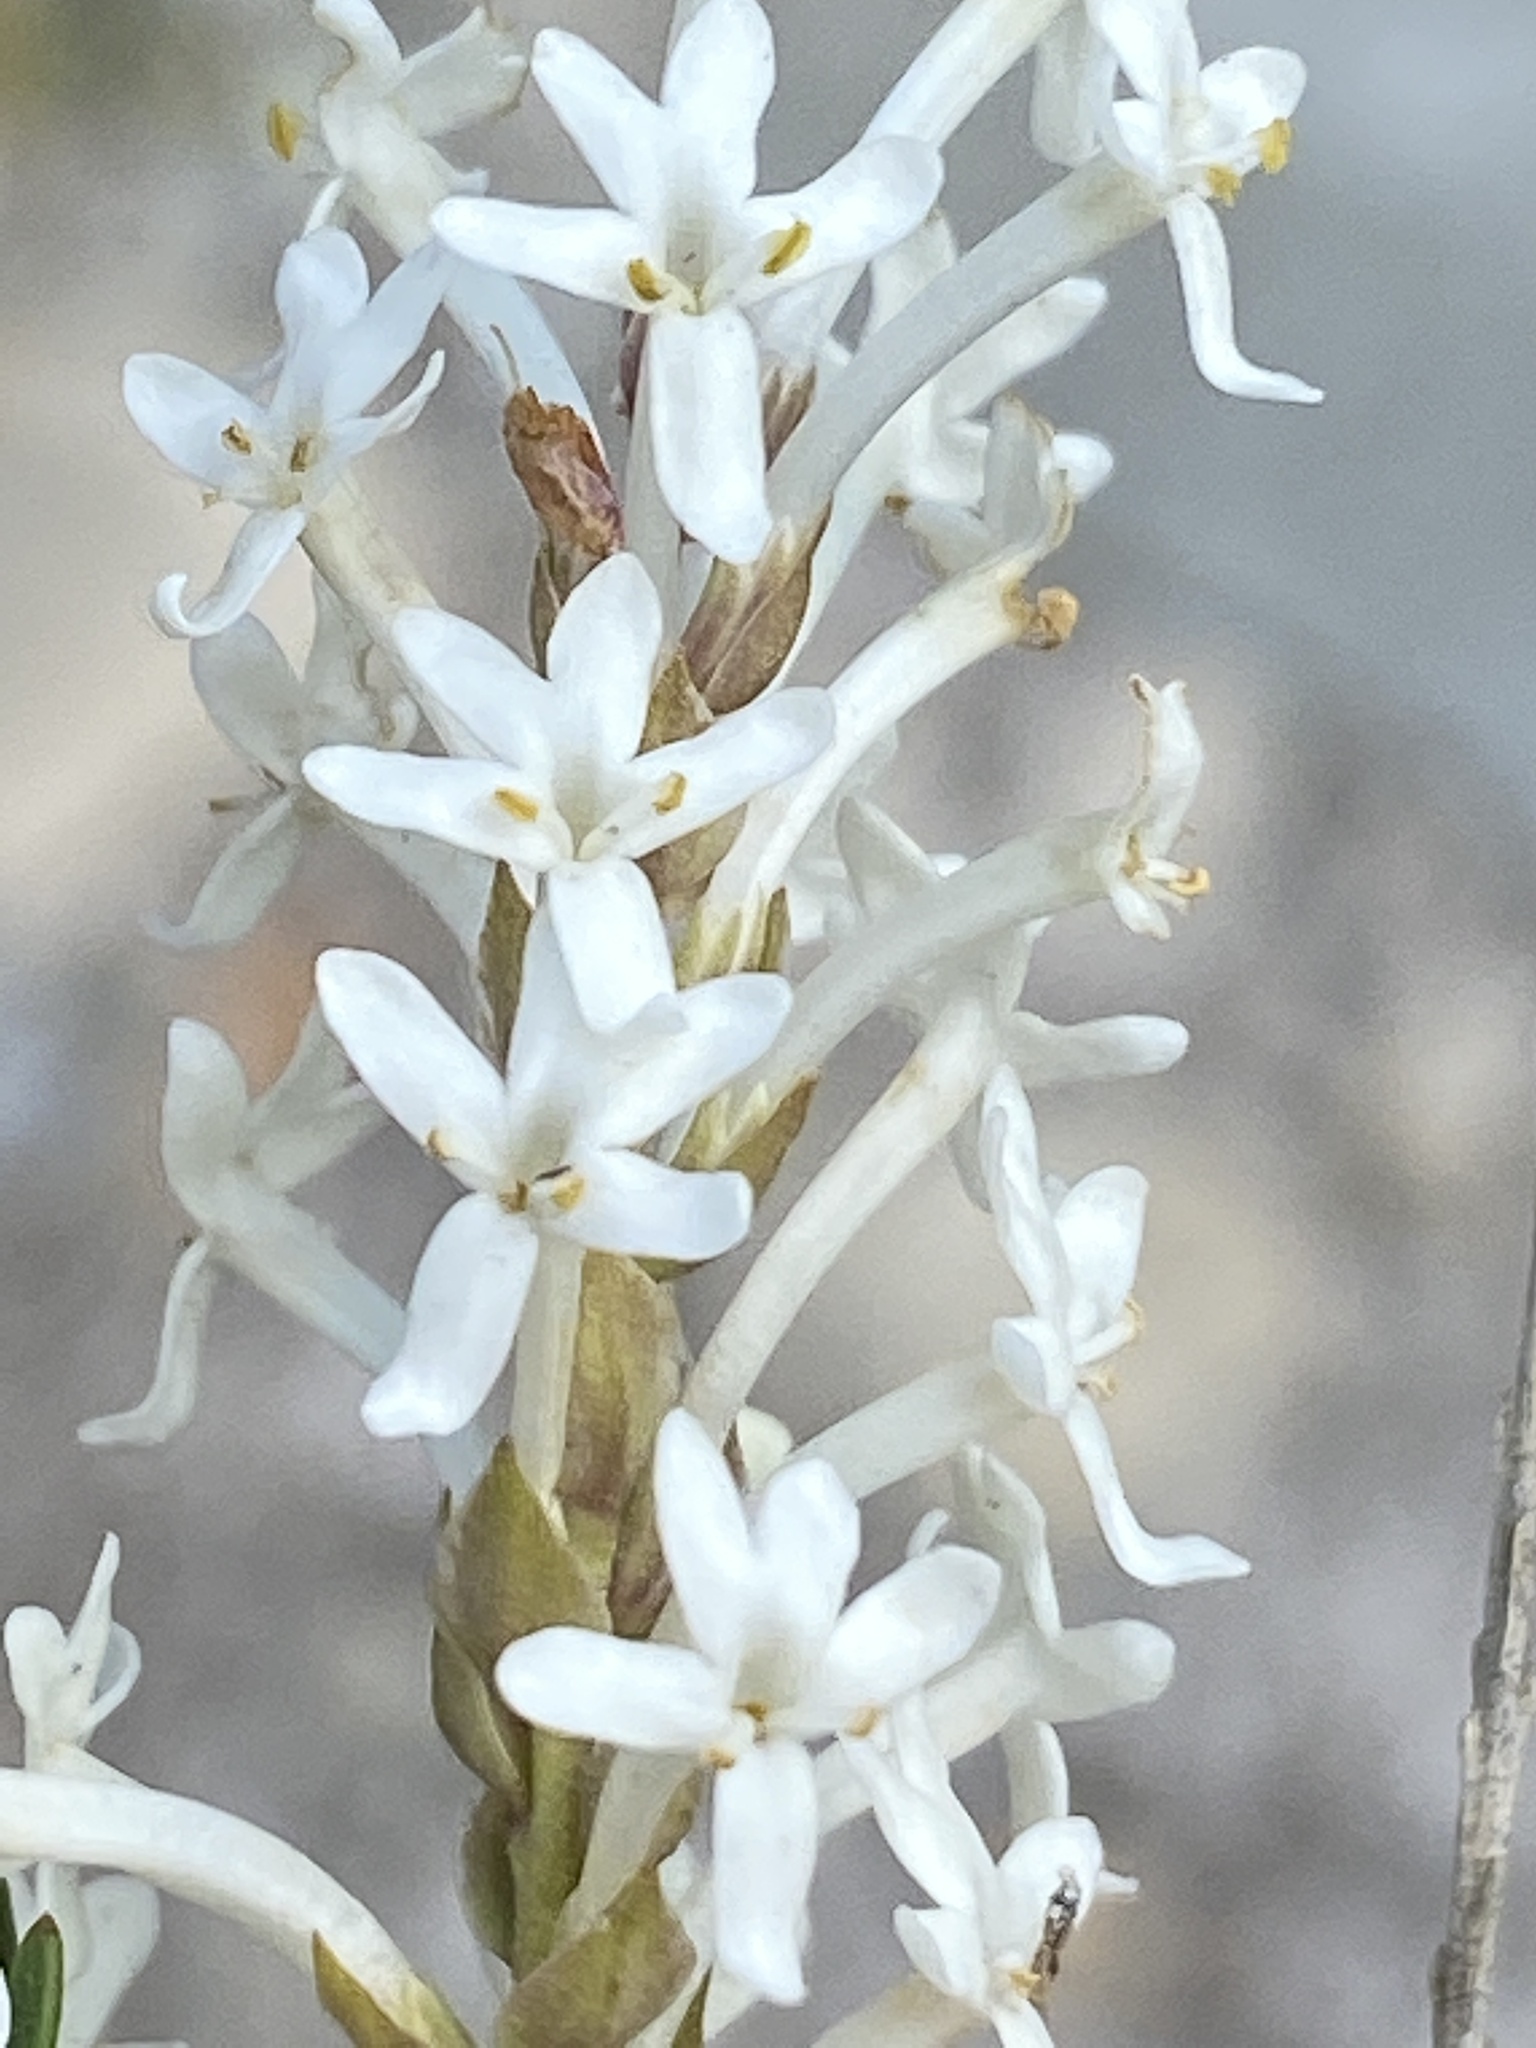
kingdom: Plantae
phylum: Tracheophyta
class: Magnoliopsida
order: Lamiales
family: Scrophulariaceae
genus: Microdon
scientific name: Microdon polygaloides
